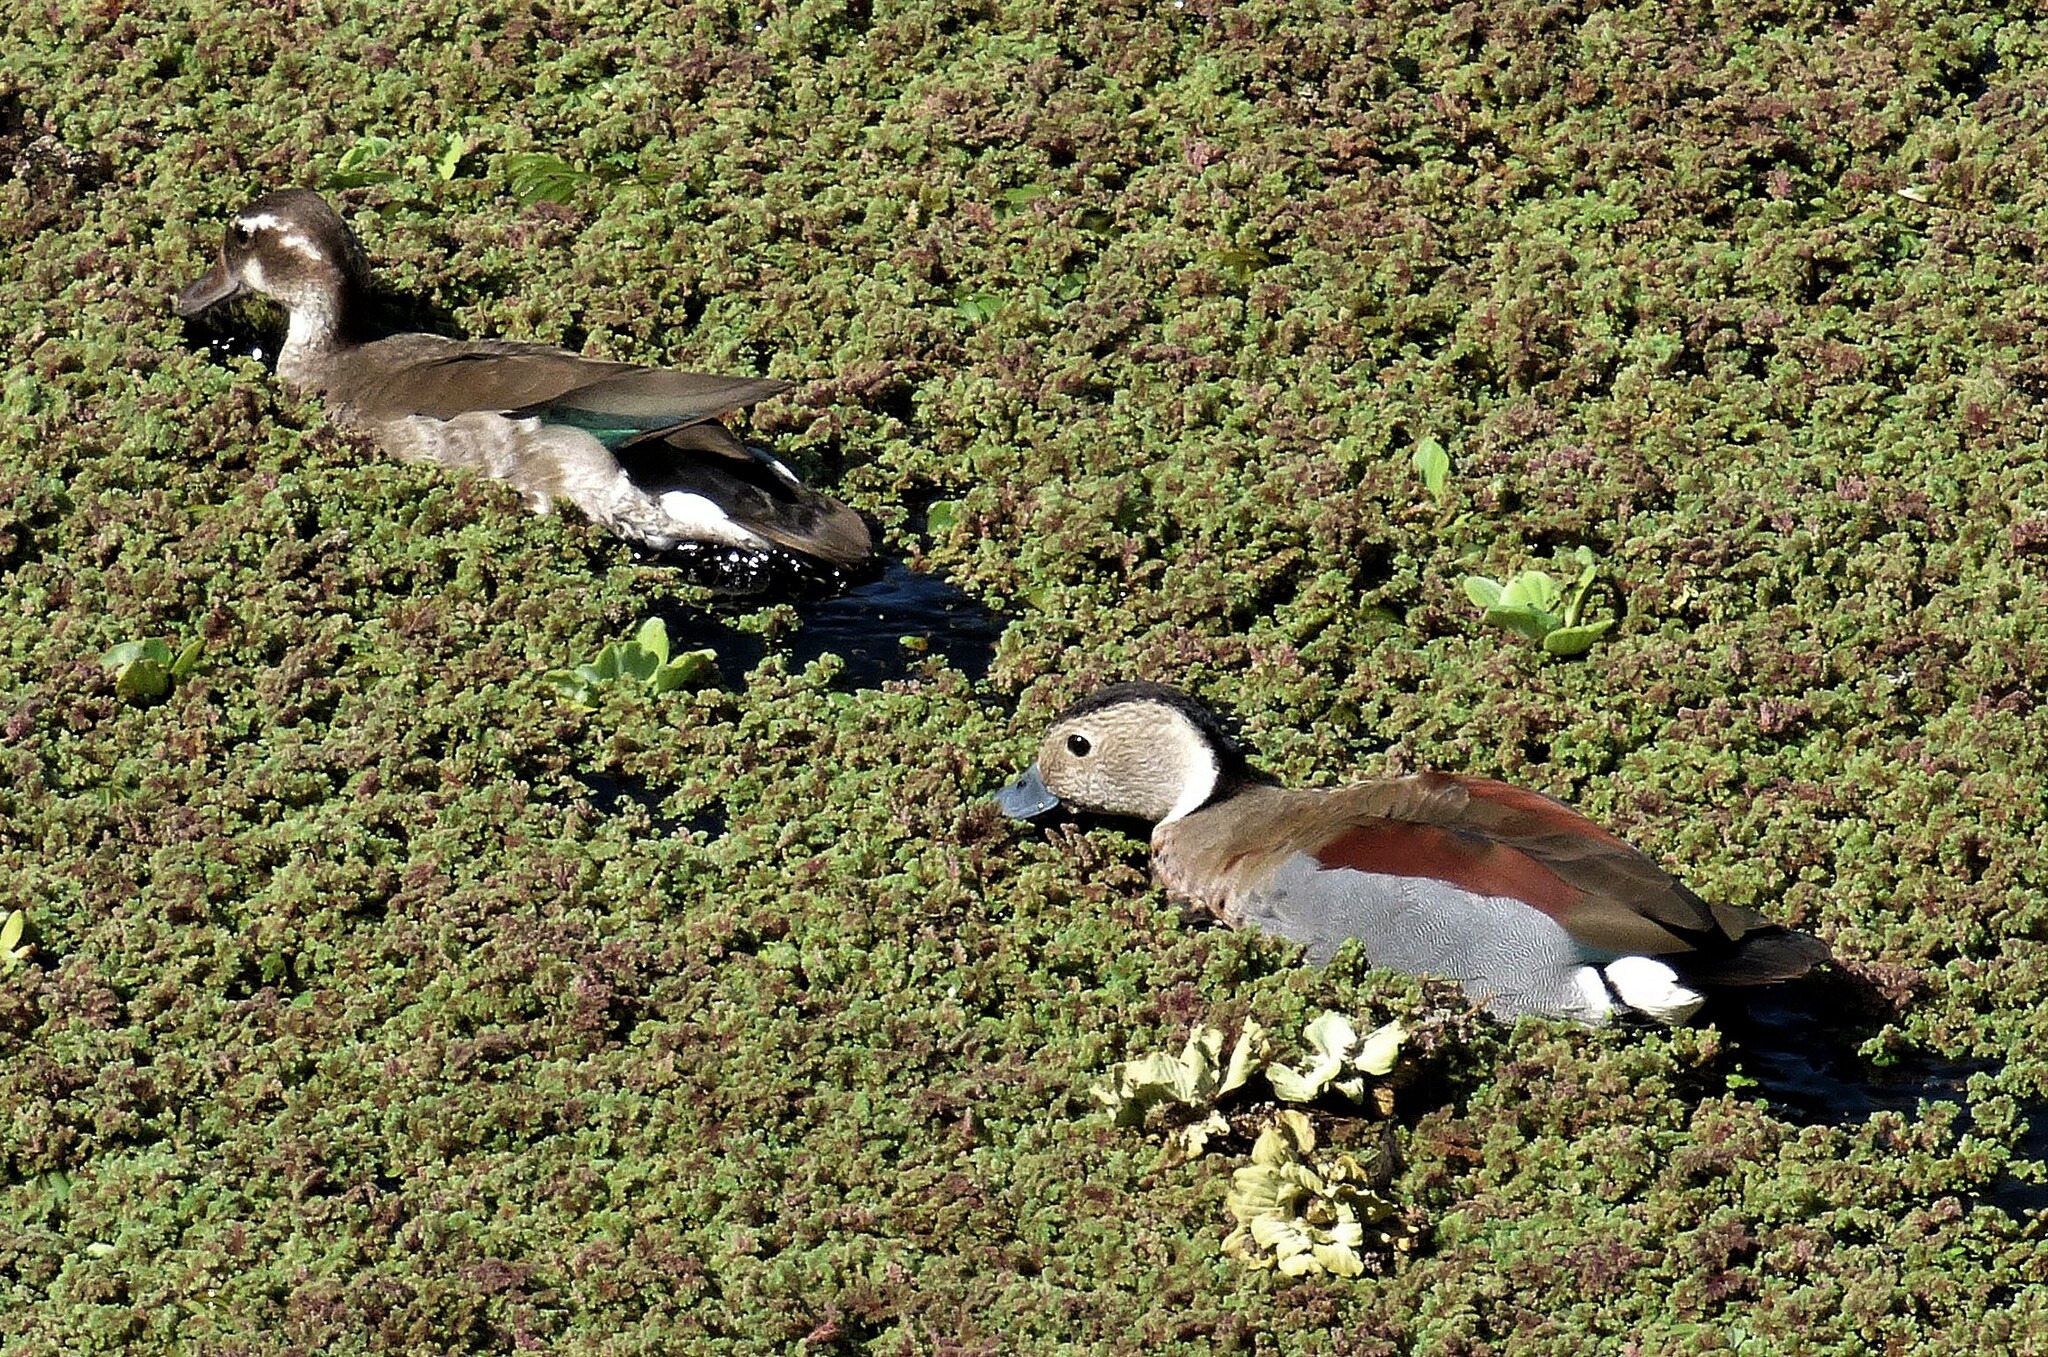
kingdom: Animalia
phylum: Chordata
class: Aves
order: Anseriformes
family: Anatidae
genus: Callonetta
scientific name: Callonetta leucophrys
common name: Ringed teal
